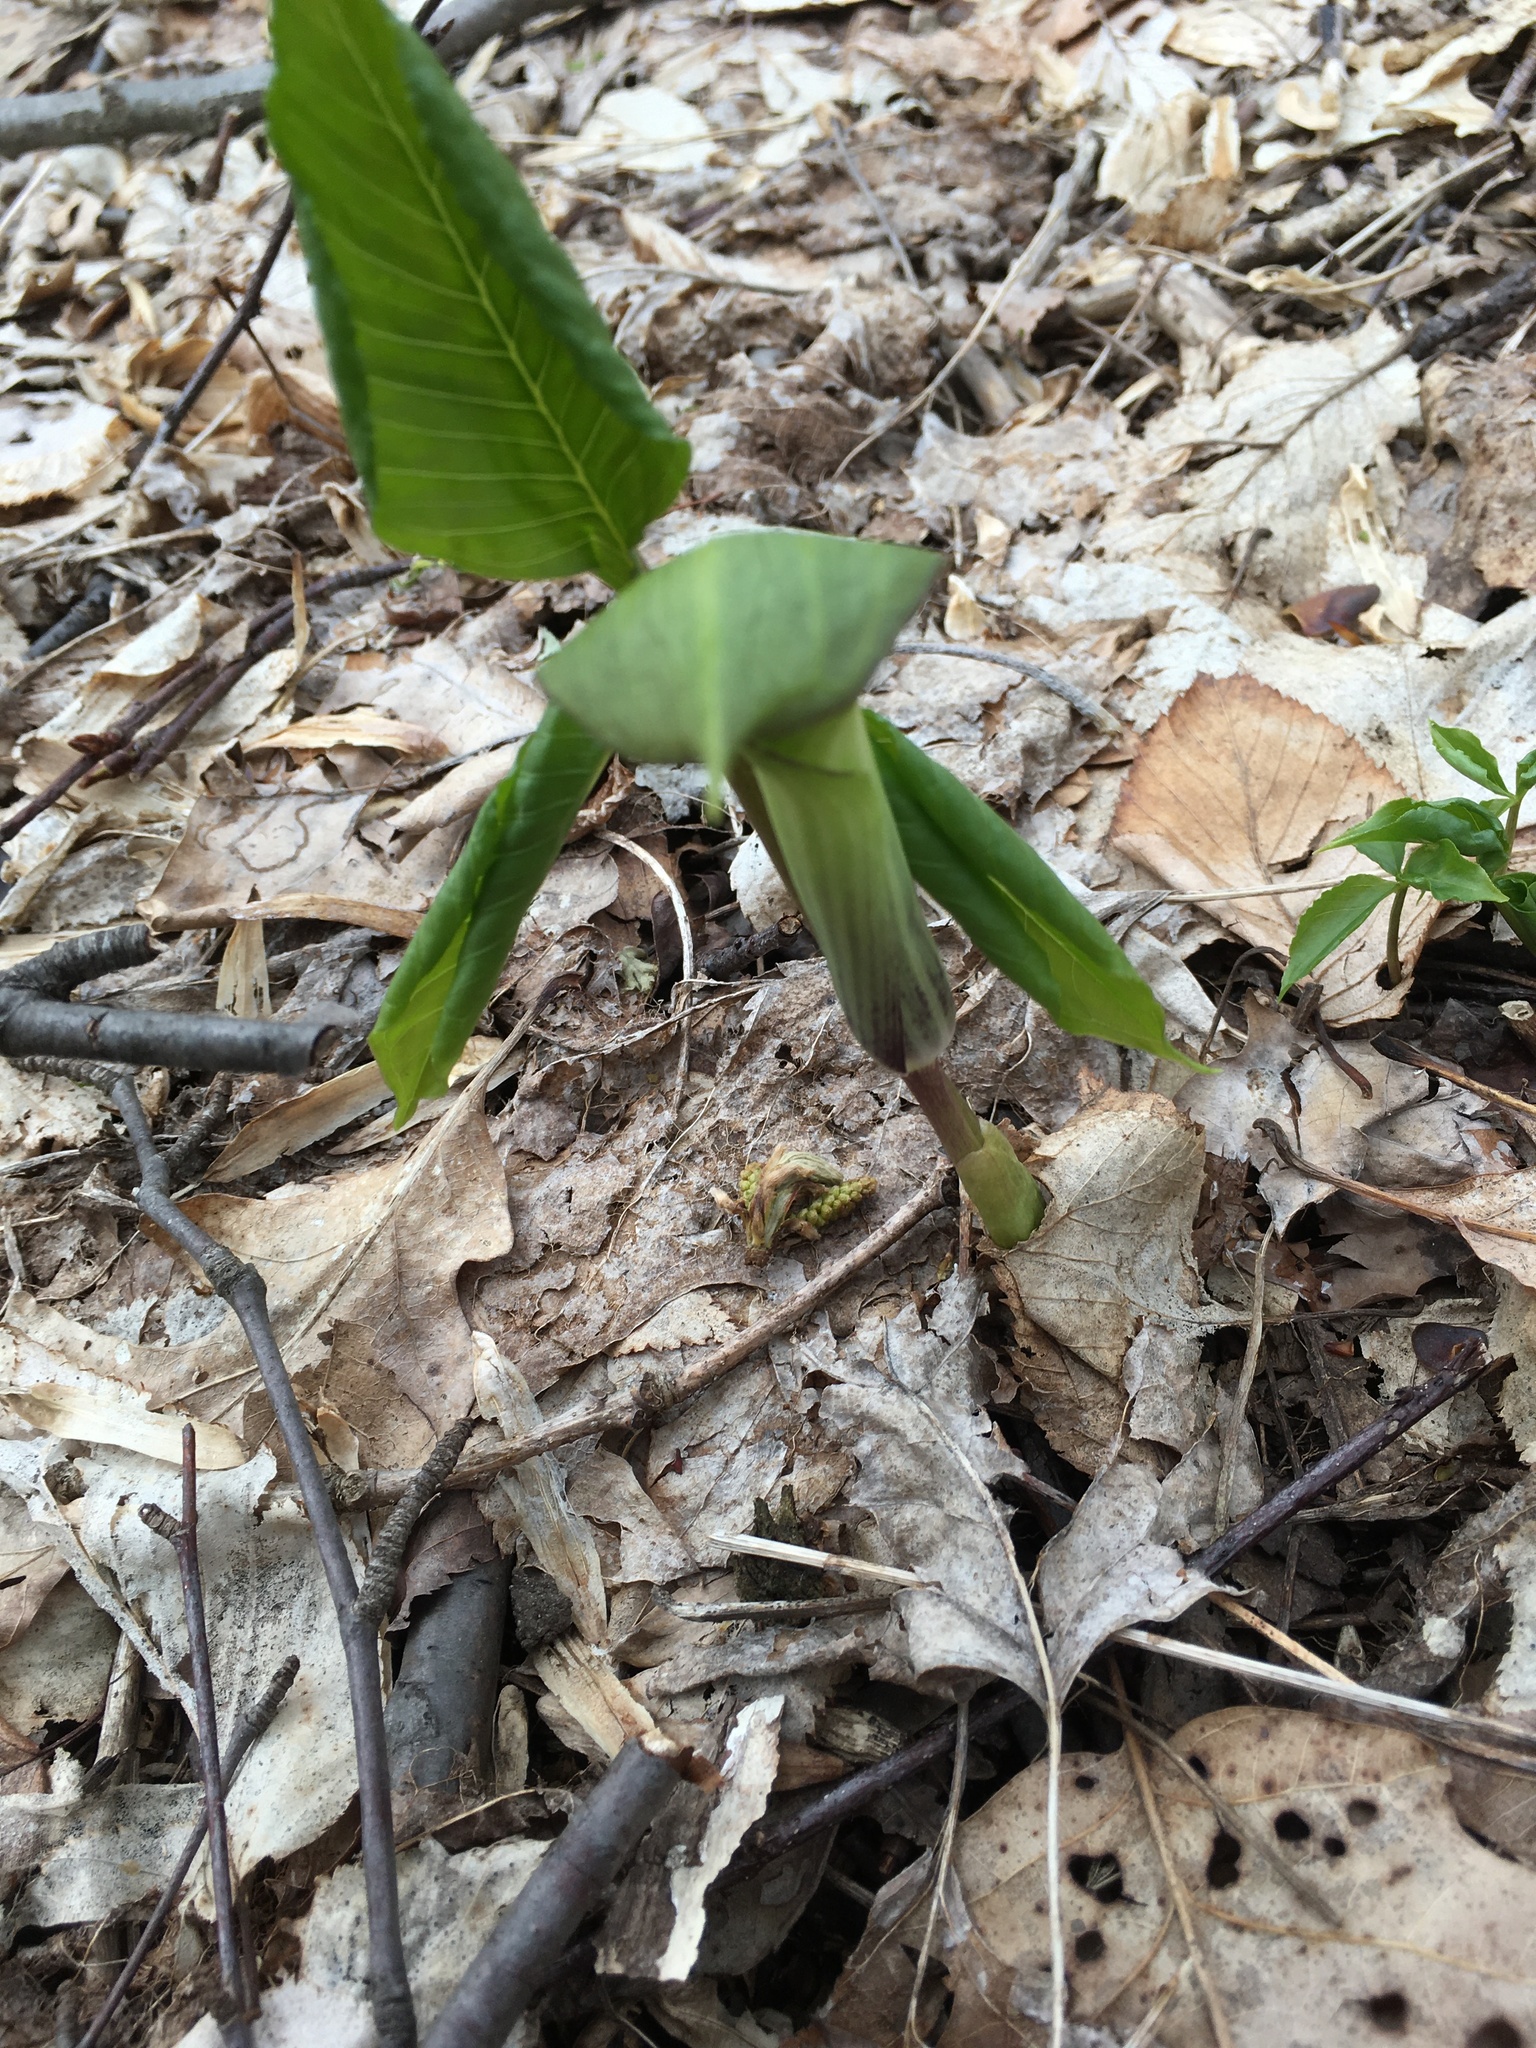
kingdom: Plantae
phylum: Tracheophyta
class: Liliopsida
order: Alismatales
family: Araceae
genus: Arisaema
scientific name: Arisaema triphyllum
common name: Jack-in-the-pulpit
